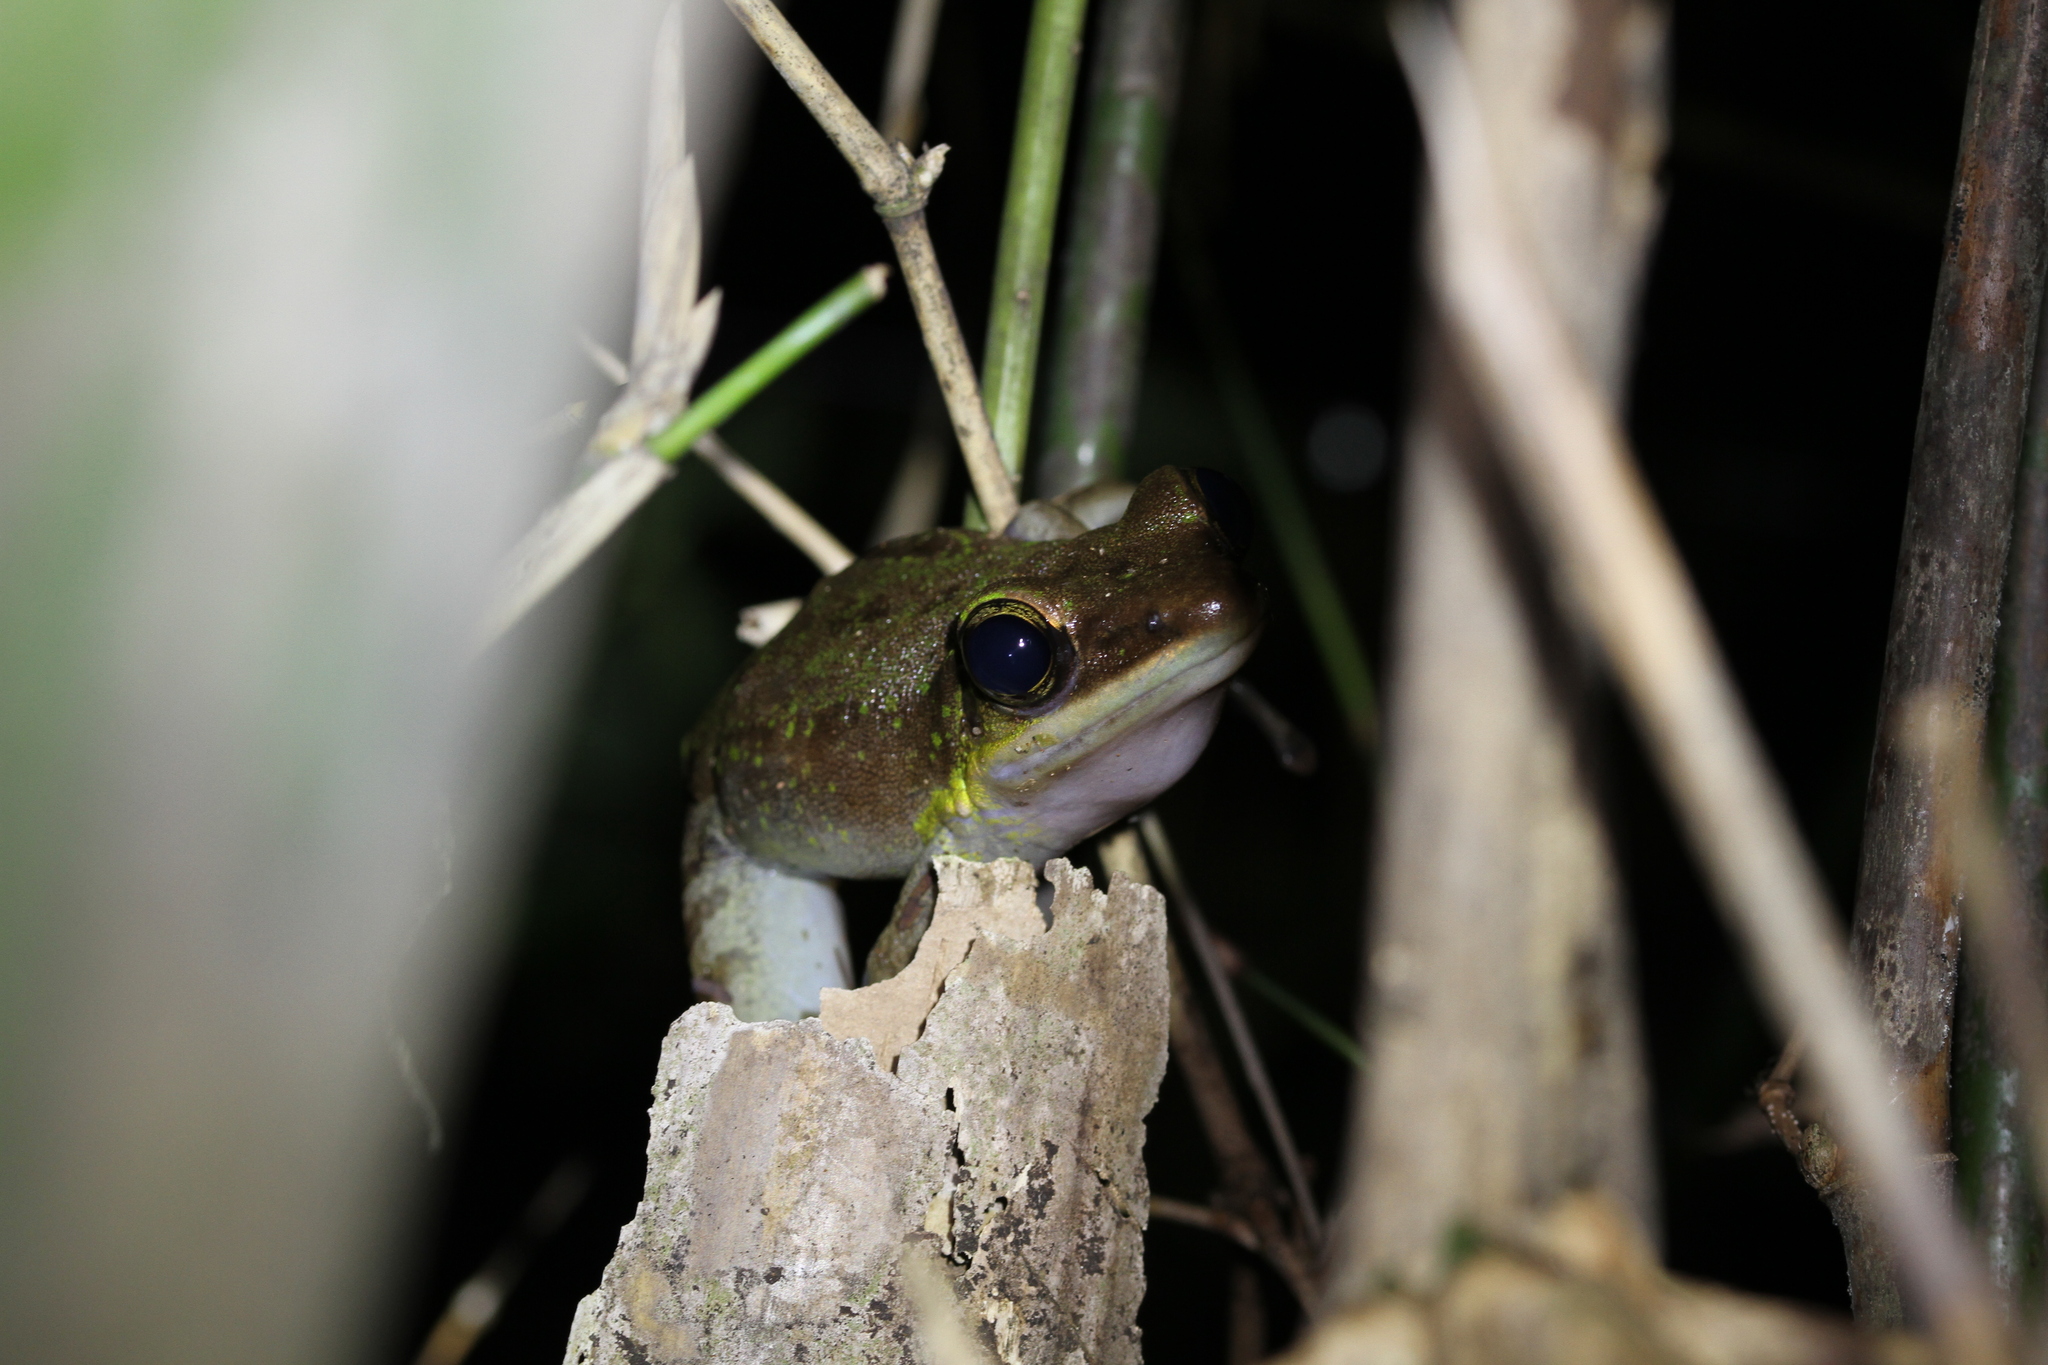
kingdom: Animalia
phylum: Chordata
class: Amphibia
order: Anura
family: Ranidae
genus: Odorrana
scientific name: Odorrana hosii
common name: Green tree frog
